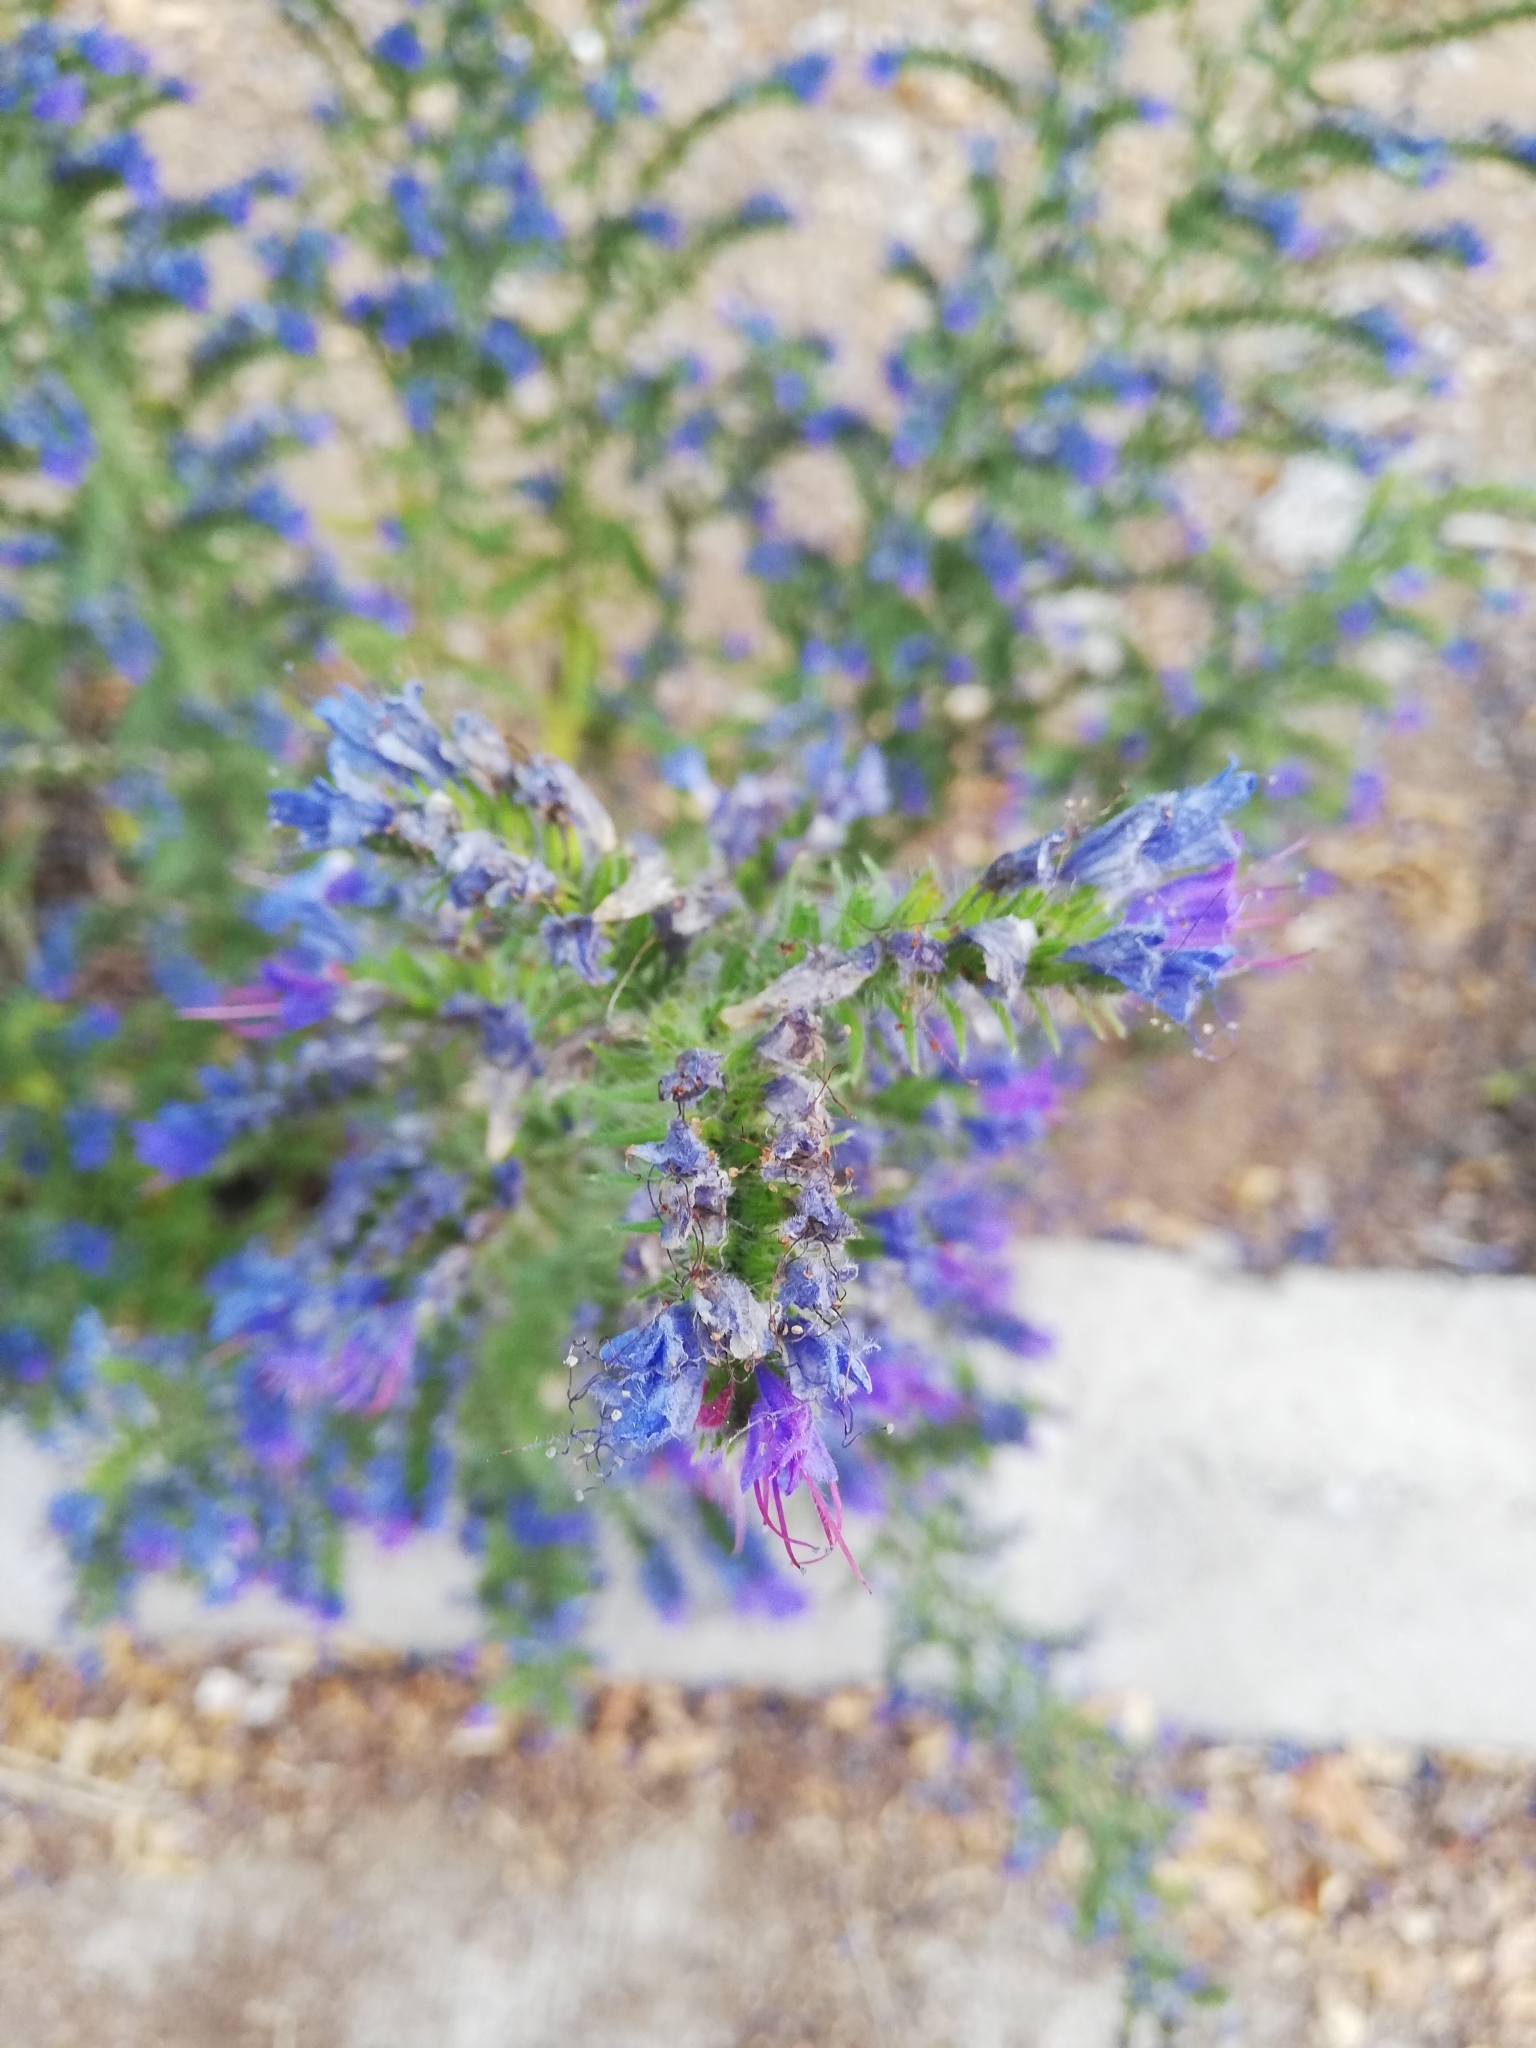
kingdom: Plantae
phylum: Tracheophyta
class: Magnoliopsida
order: Boraginales
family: Boraginaceae
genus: Echium
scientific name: Echium vulgare
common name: Common viper's bugloss
